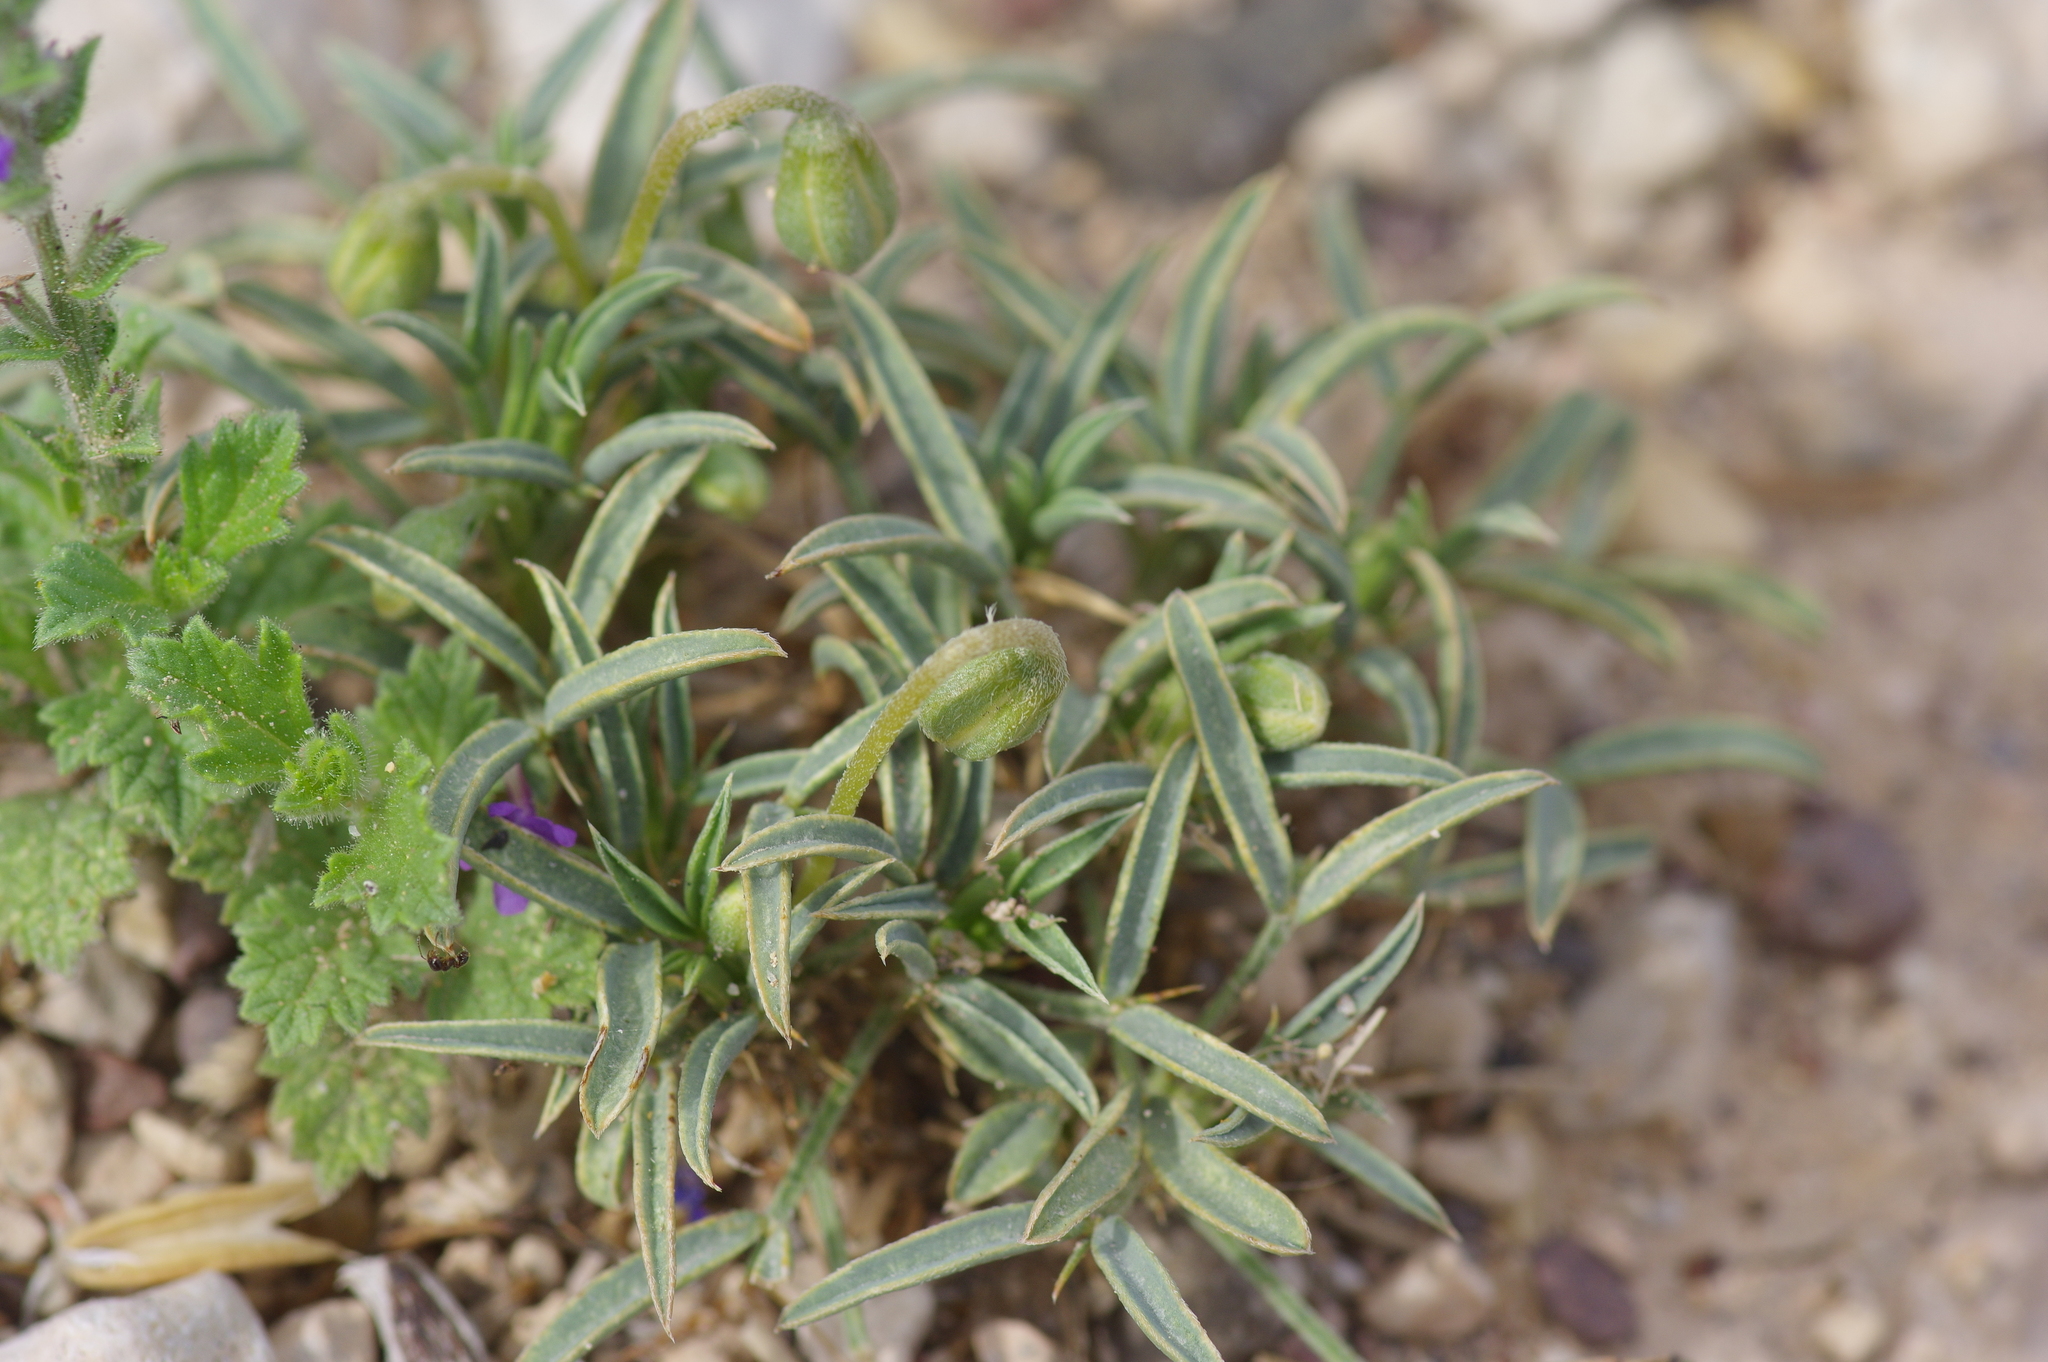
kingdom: Plantae
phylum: Tracheophyta
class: Magnoliopsida
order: Fabales
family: Fabaceae
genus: Senna
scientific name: Senna pumilio
